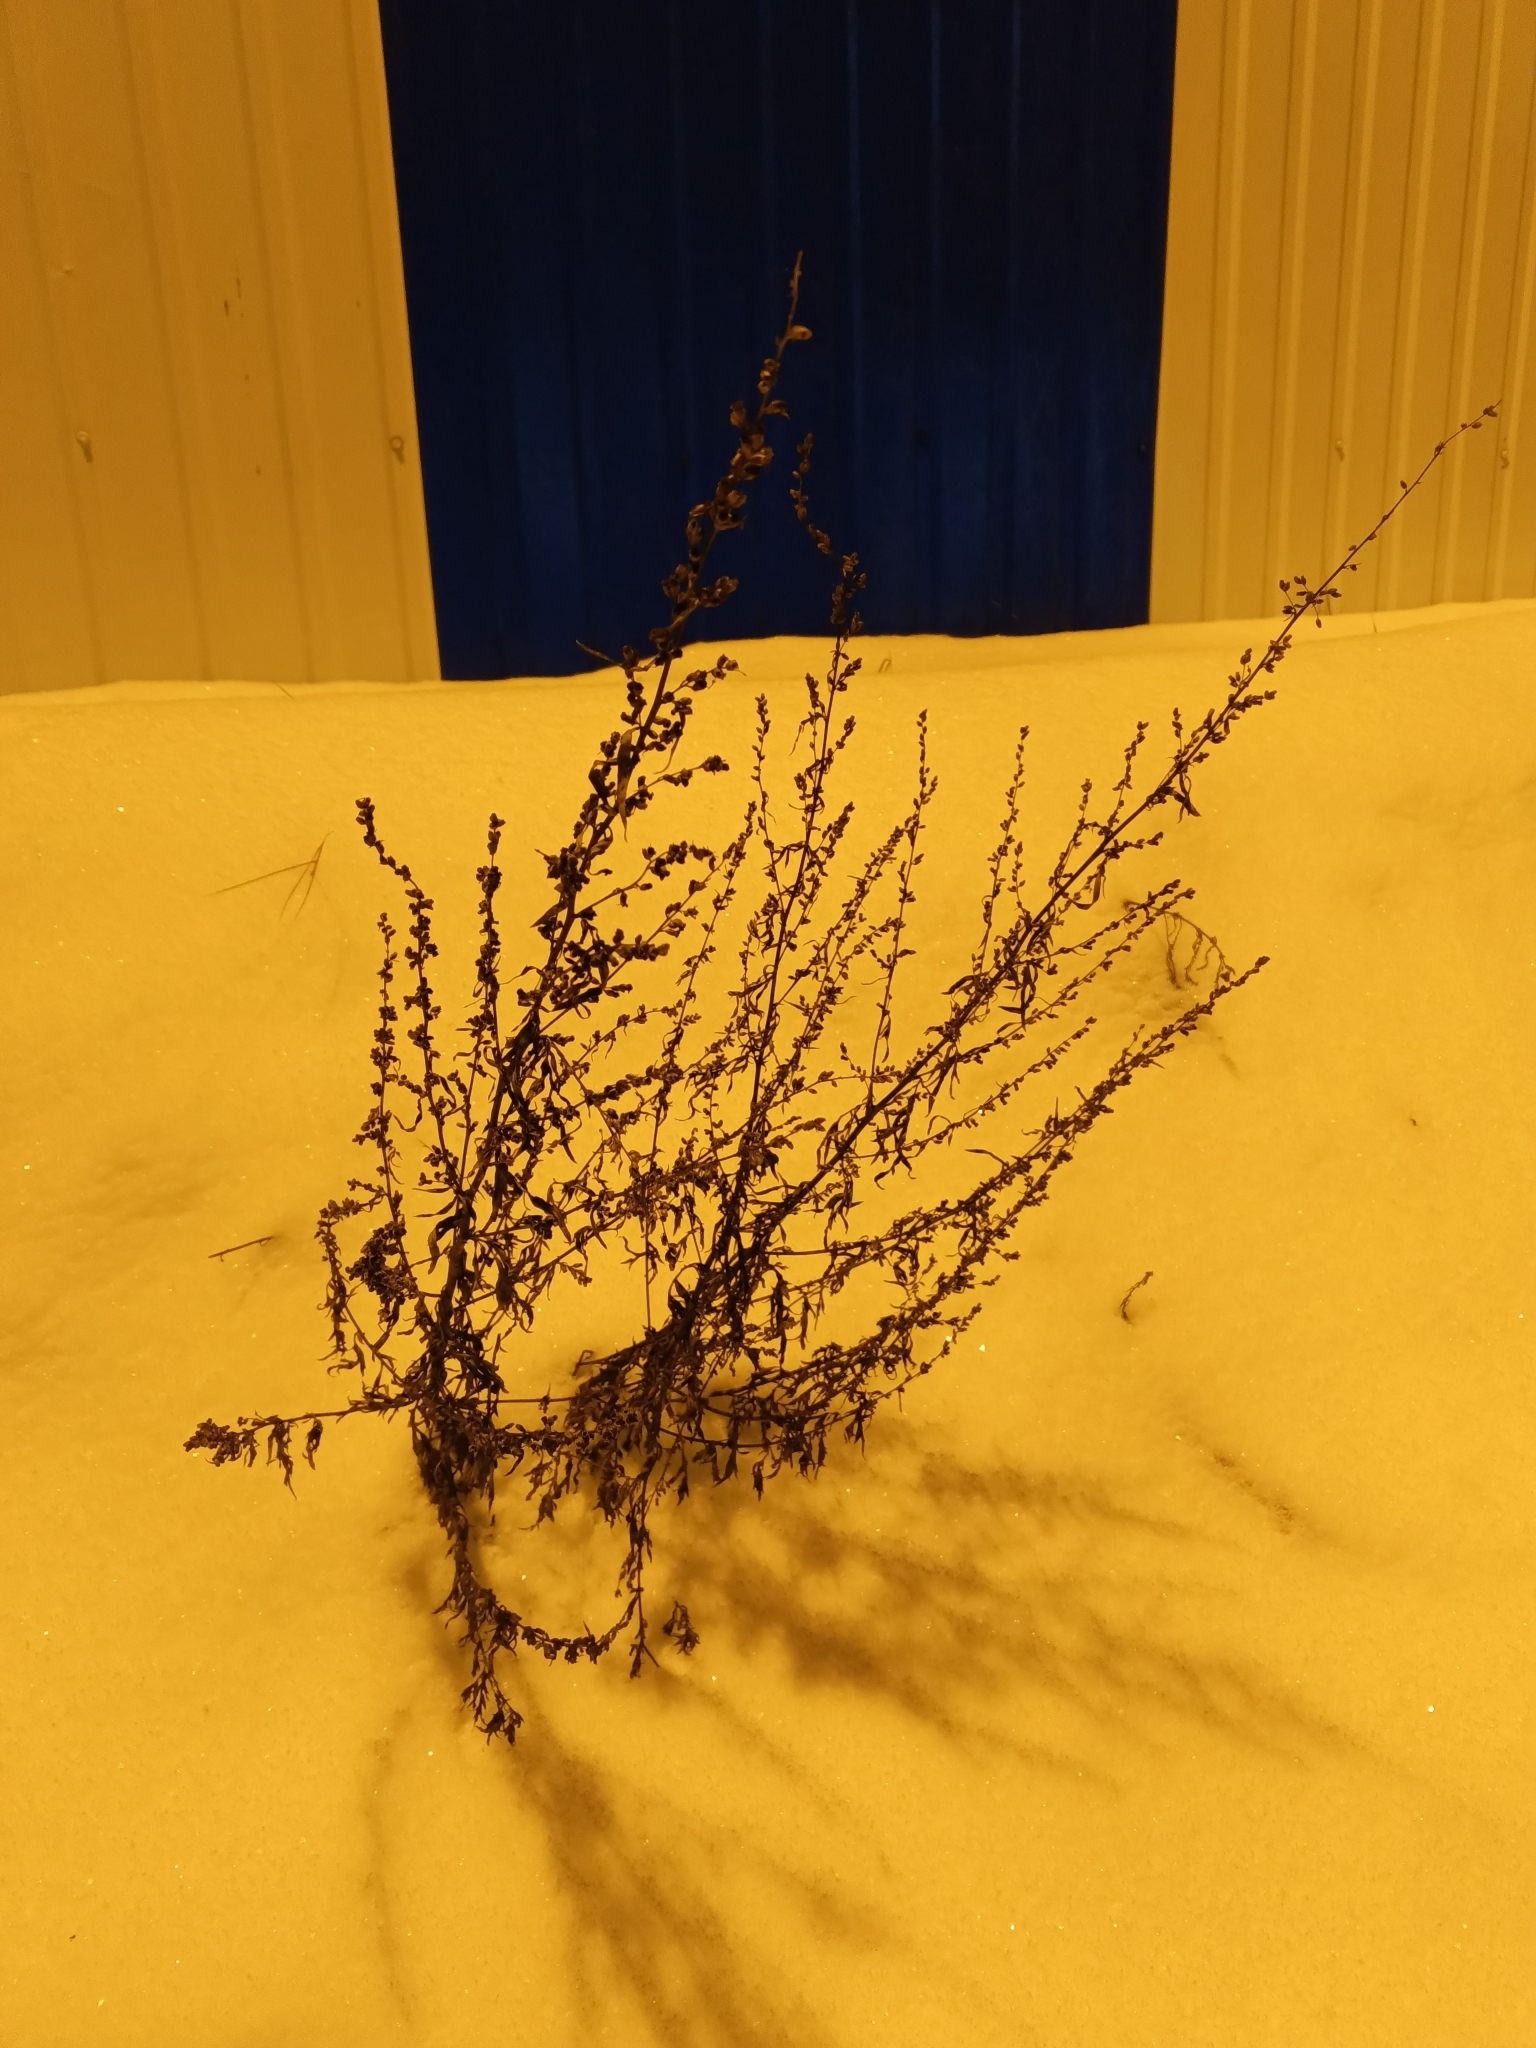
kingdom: Plantae
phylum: Tracheophyta
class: Magnoliopsida
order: Asterales
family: Asteraceae
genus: Artemisia
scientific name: Artemisia vulgaris
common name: Mugwort
